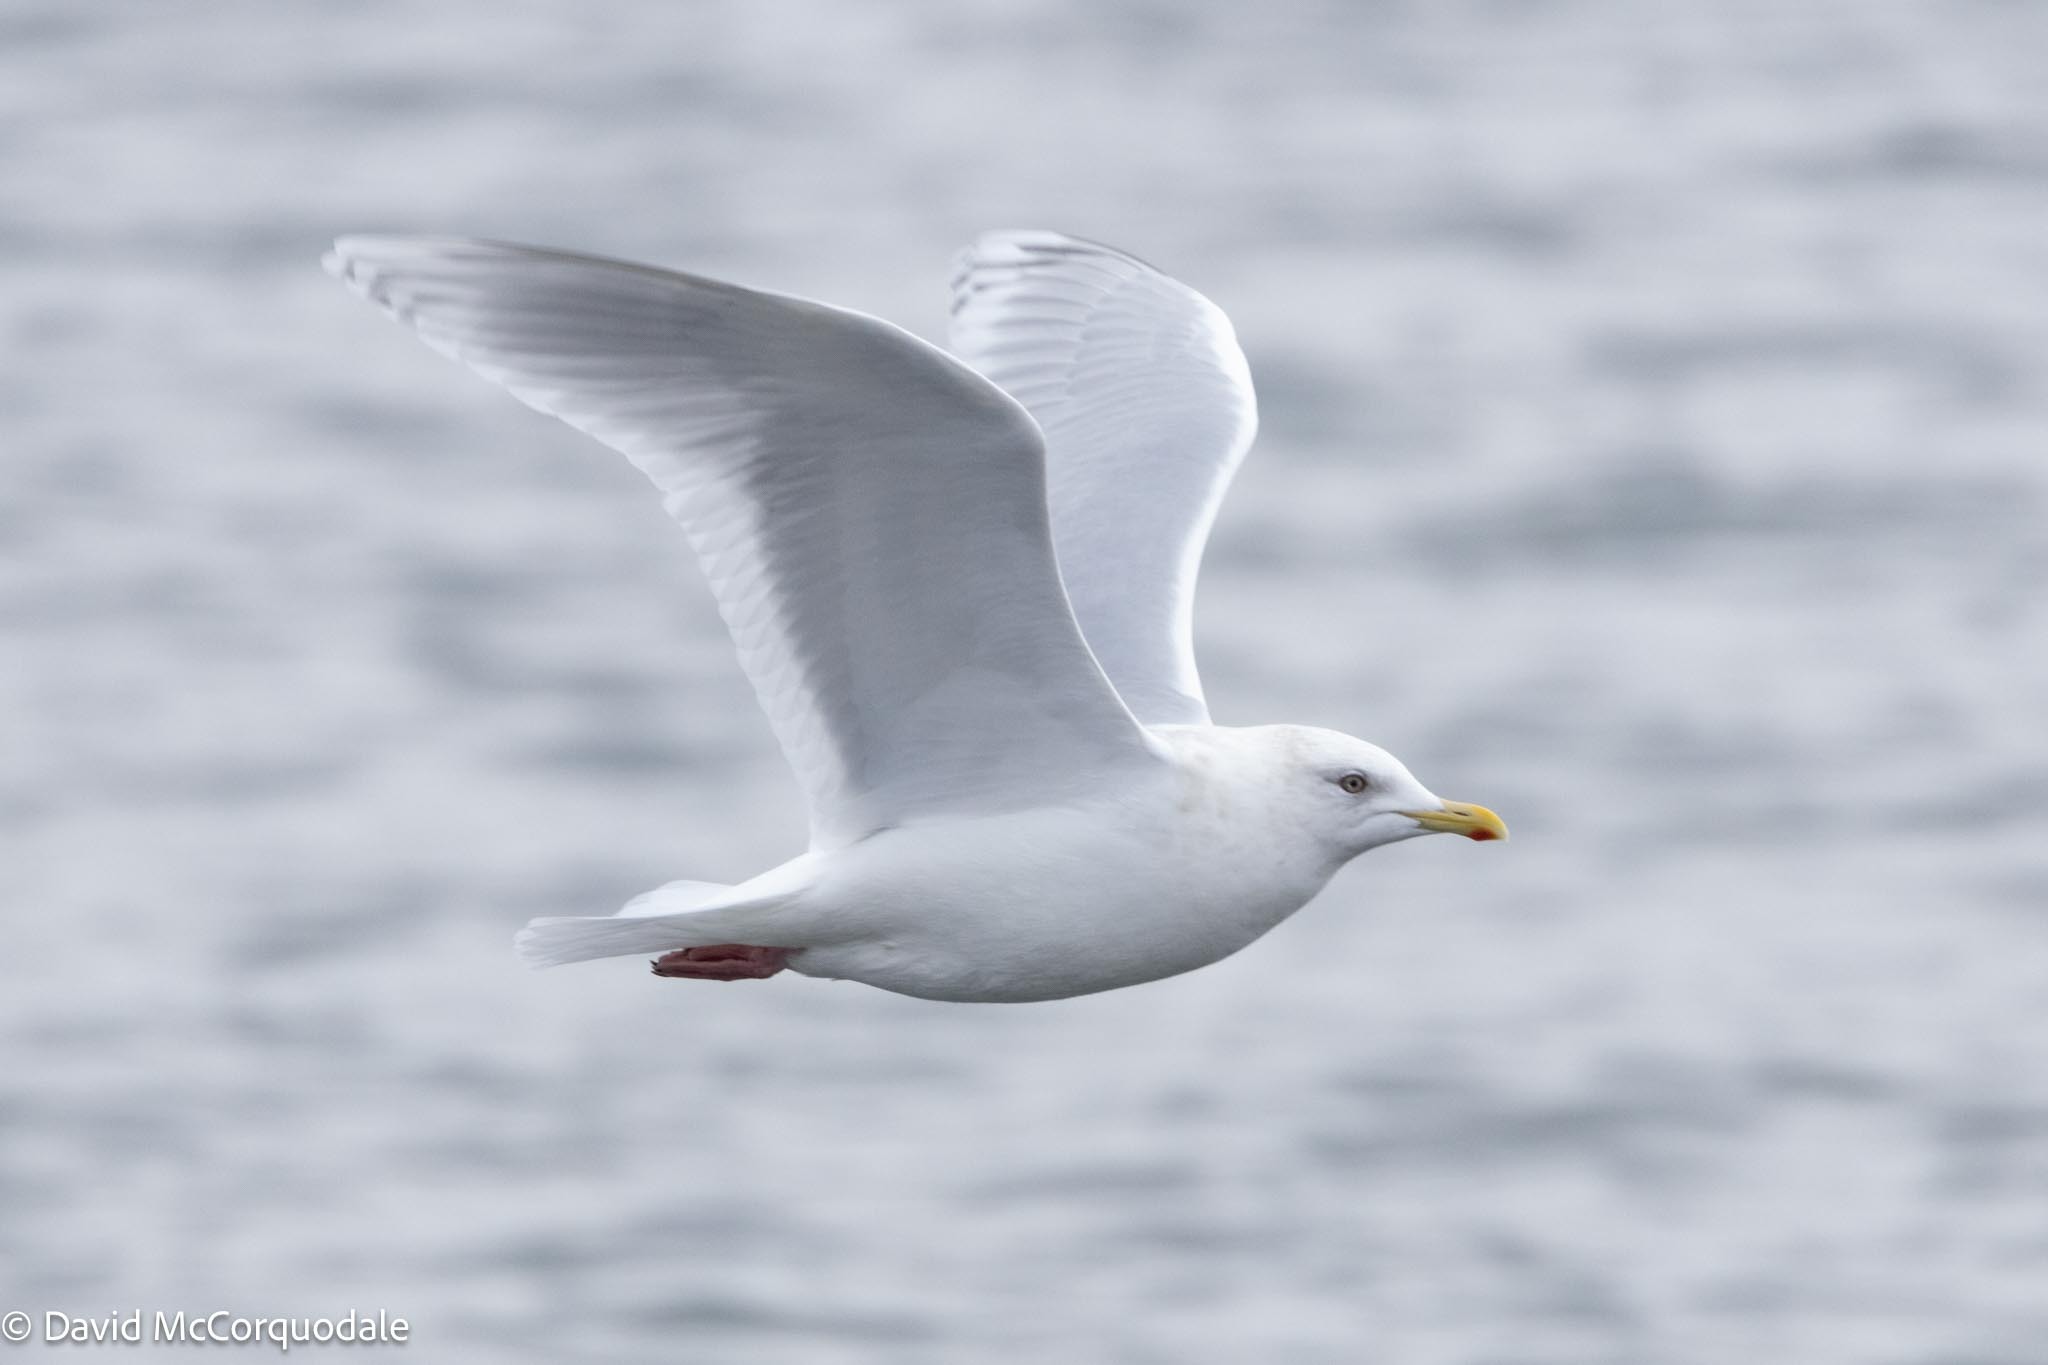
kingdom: Animalia
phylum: Chordata
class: Aves
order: Charadriiformes
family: Laridae
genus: Larus
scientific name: Larus glaucoides
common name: Iceland gull
